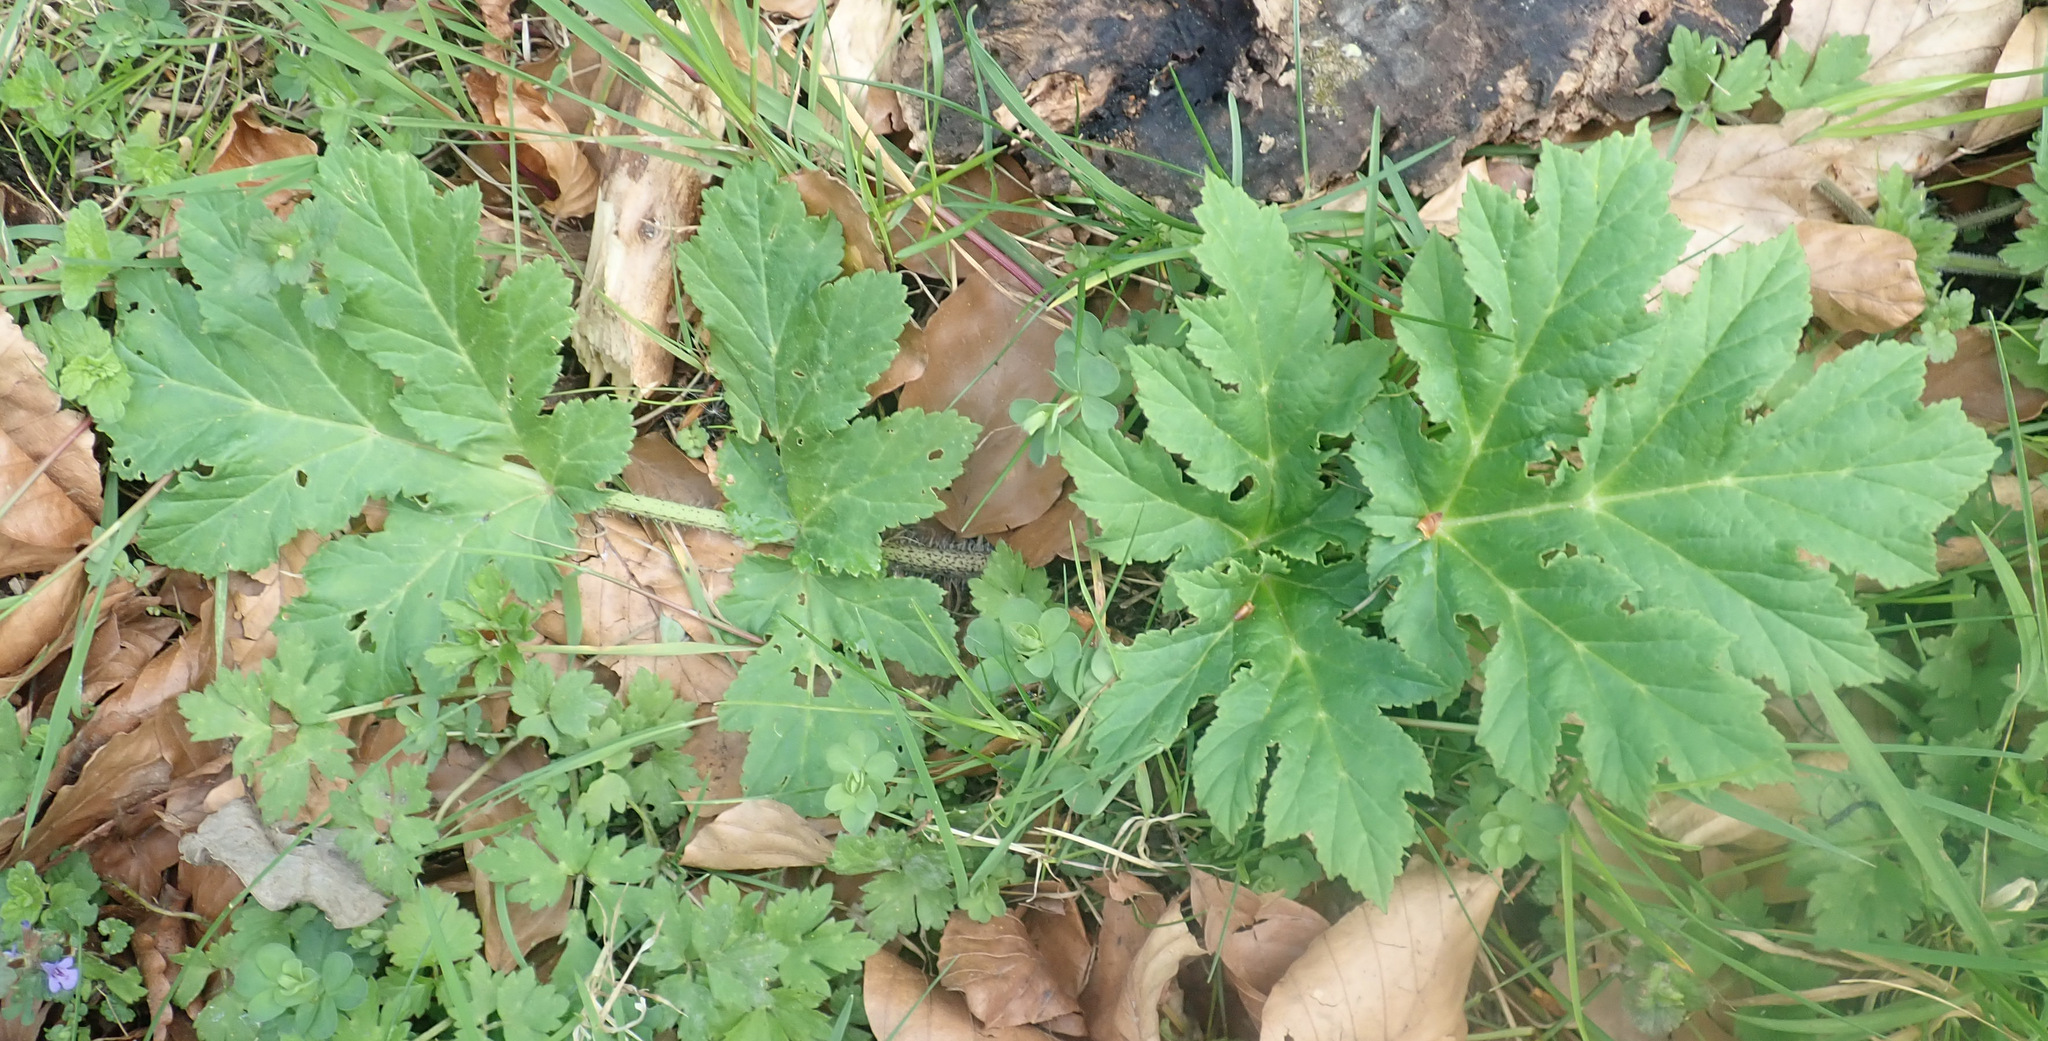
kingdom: Plantae
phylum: Tracheophyta
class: Magnoliopsida
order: Apiales
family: Apiaceae
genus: Heracleum
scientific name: Heracleum mantegazzianum
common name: Giant hogweed
